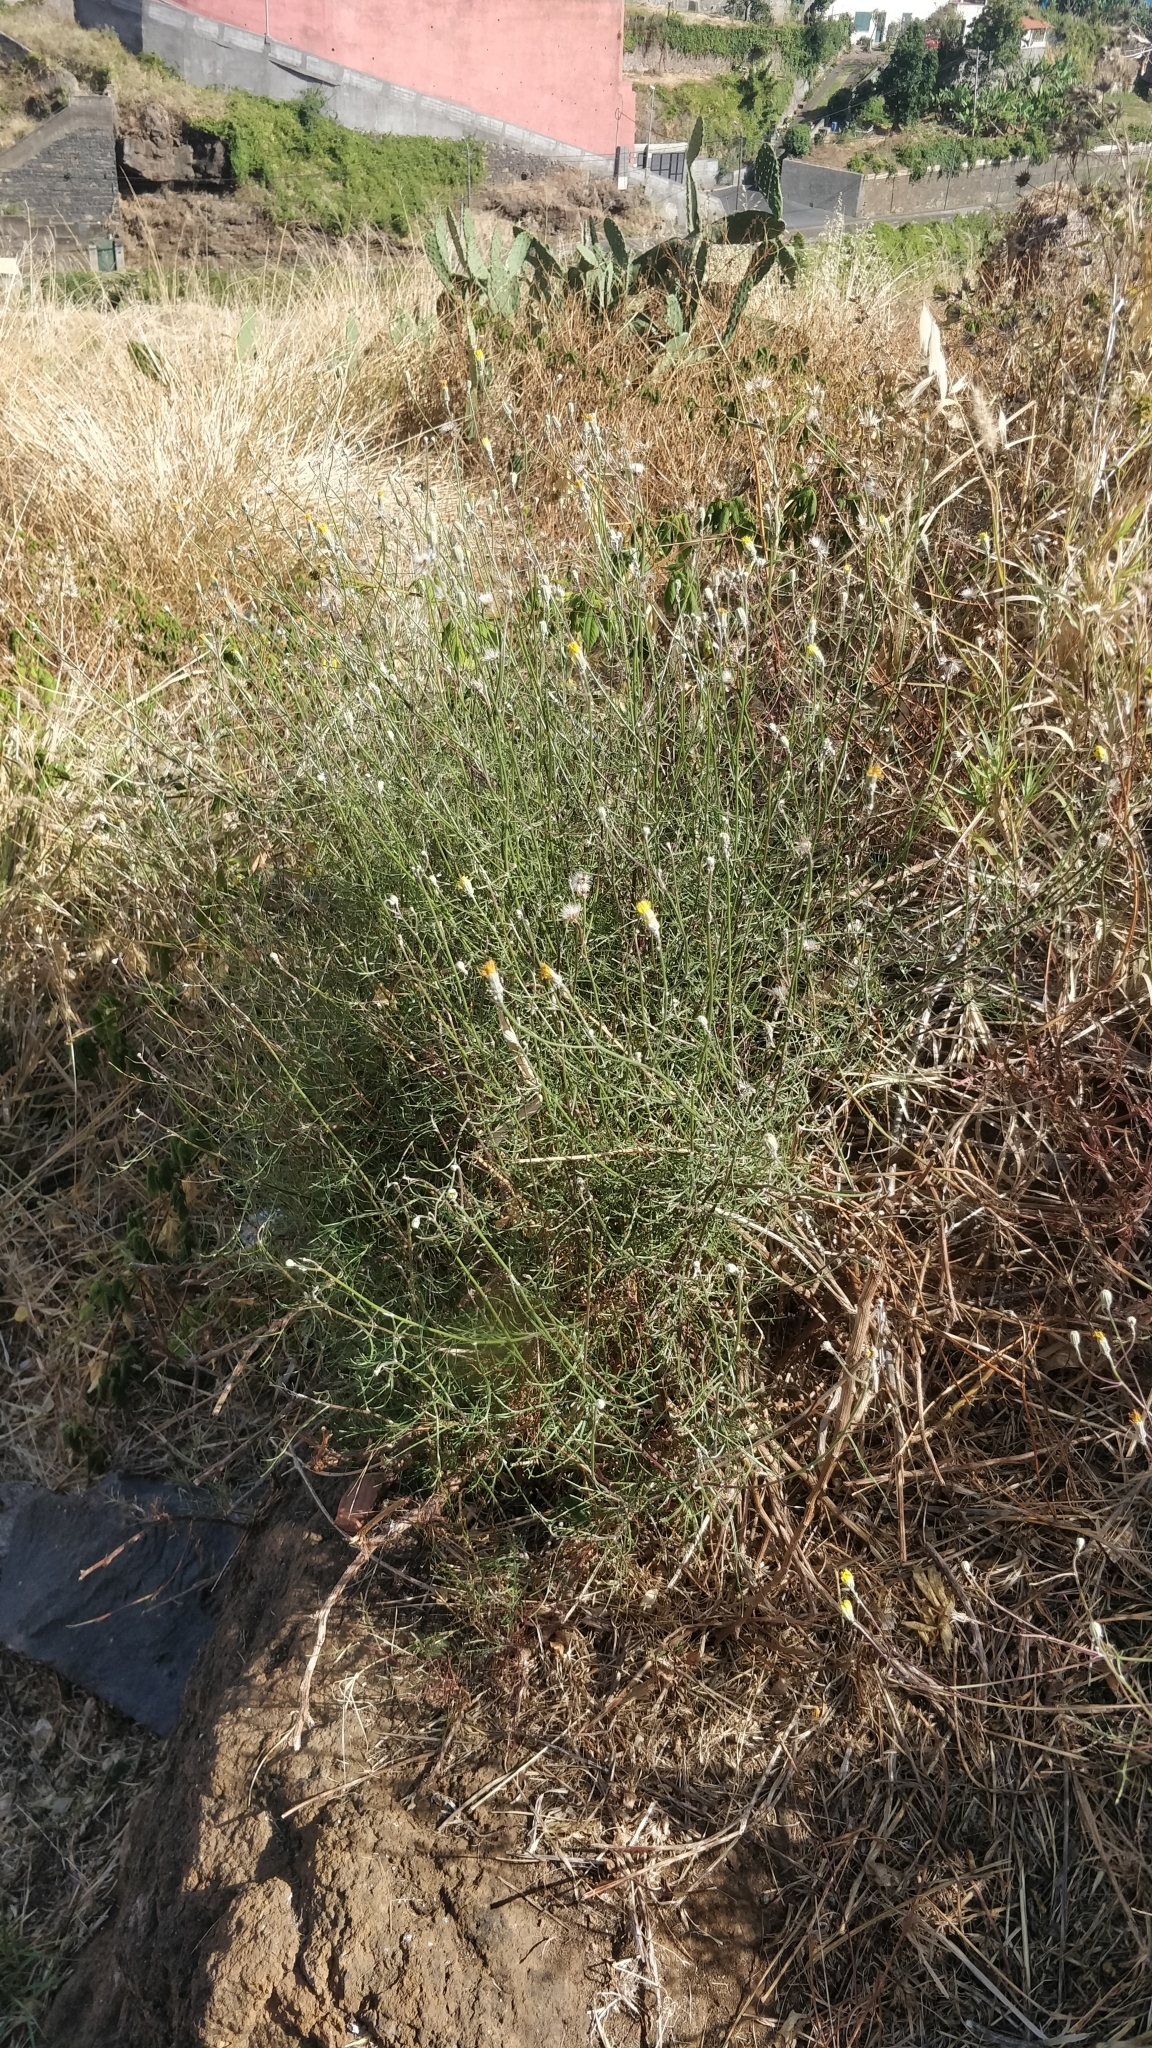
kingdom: Plantae
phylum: Tracheophyta
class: Magnoliopsida
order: Asterales
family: Asteraceae
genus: Tolpis
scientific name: Tolpis succulenta
